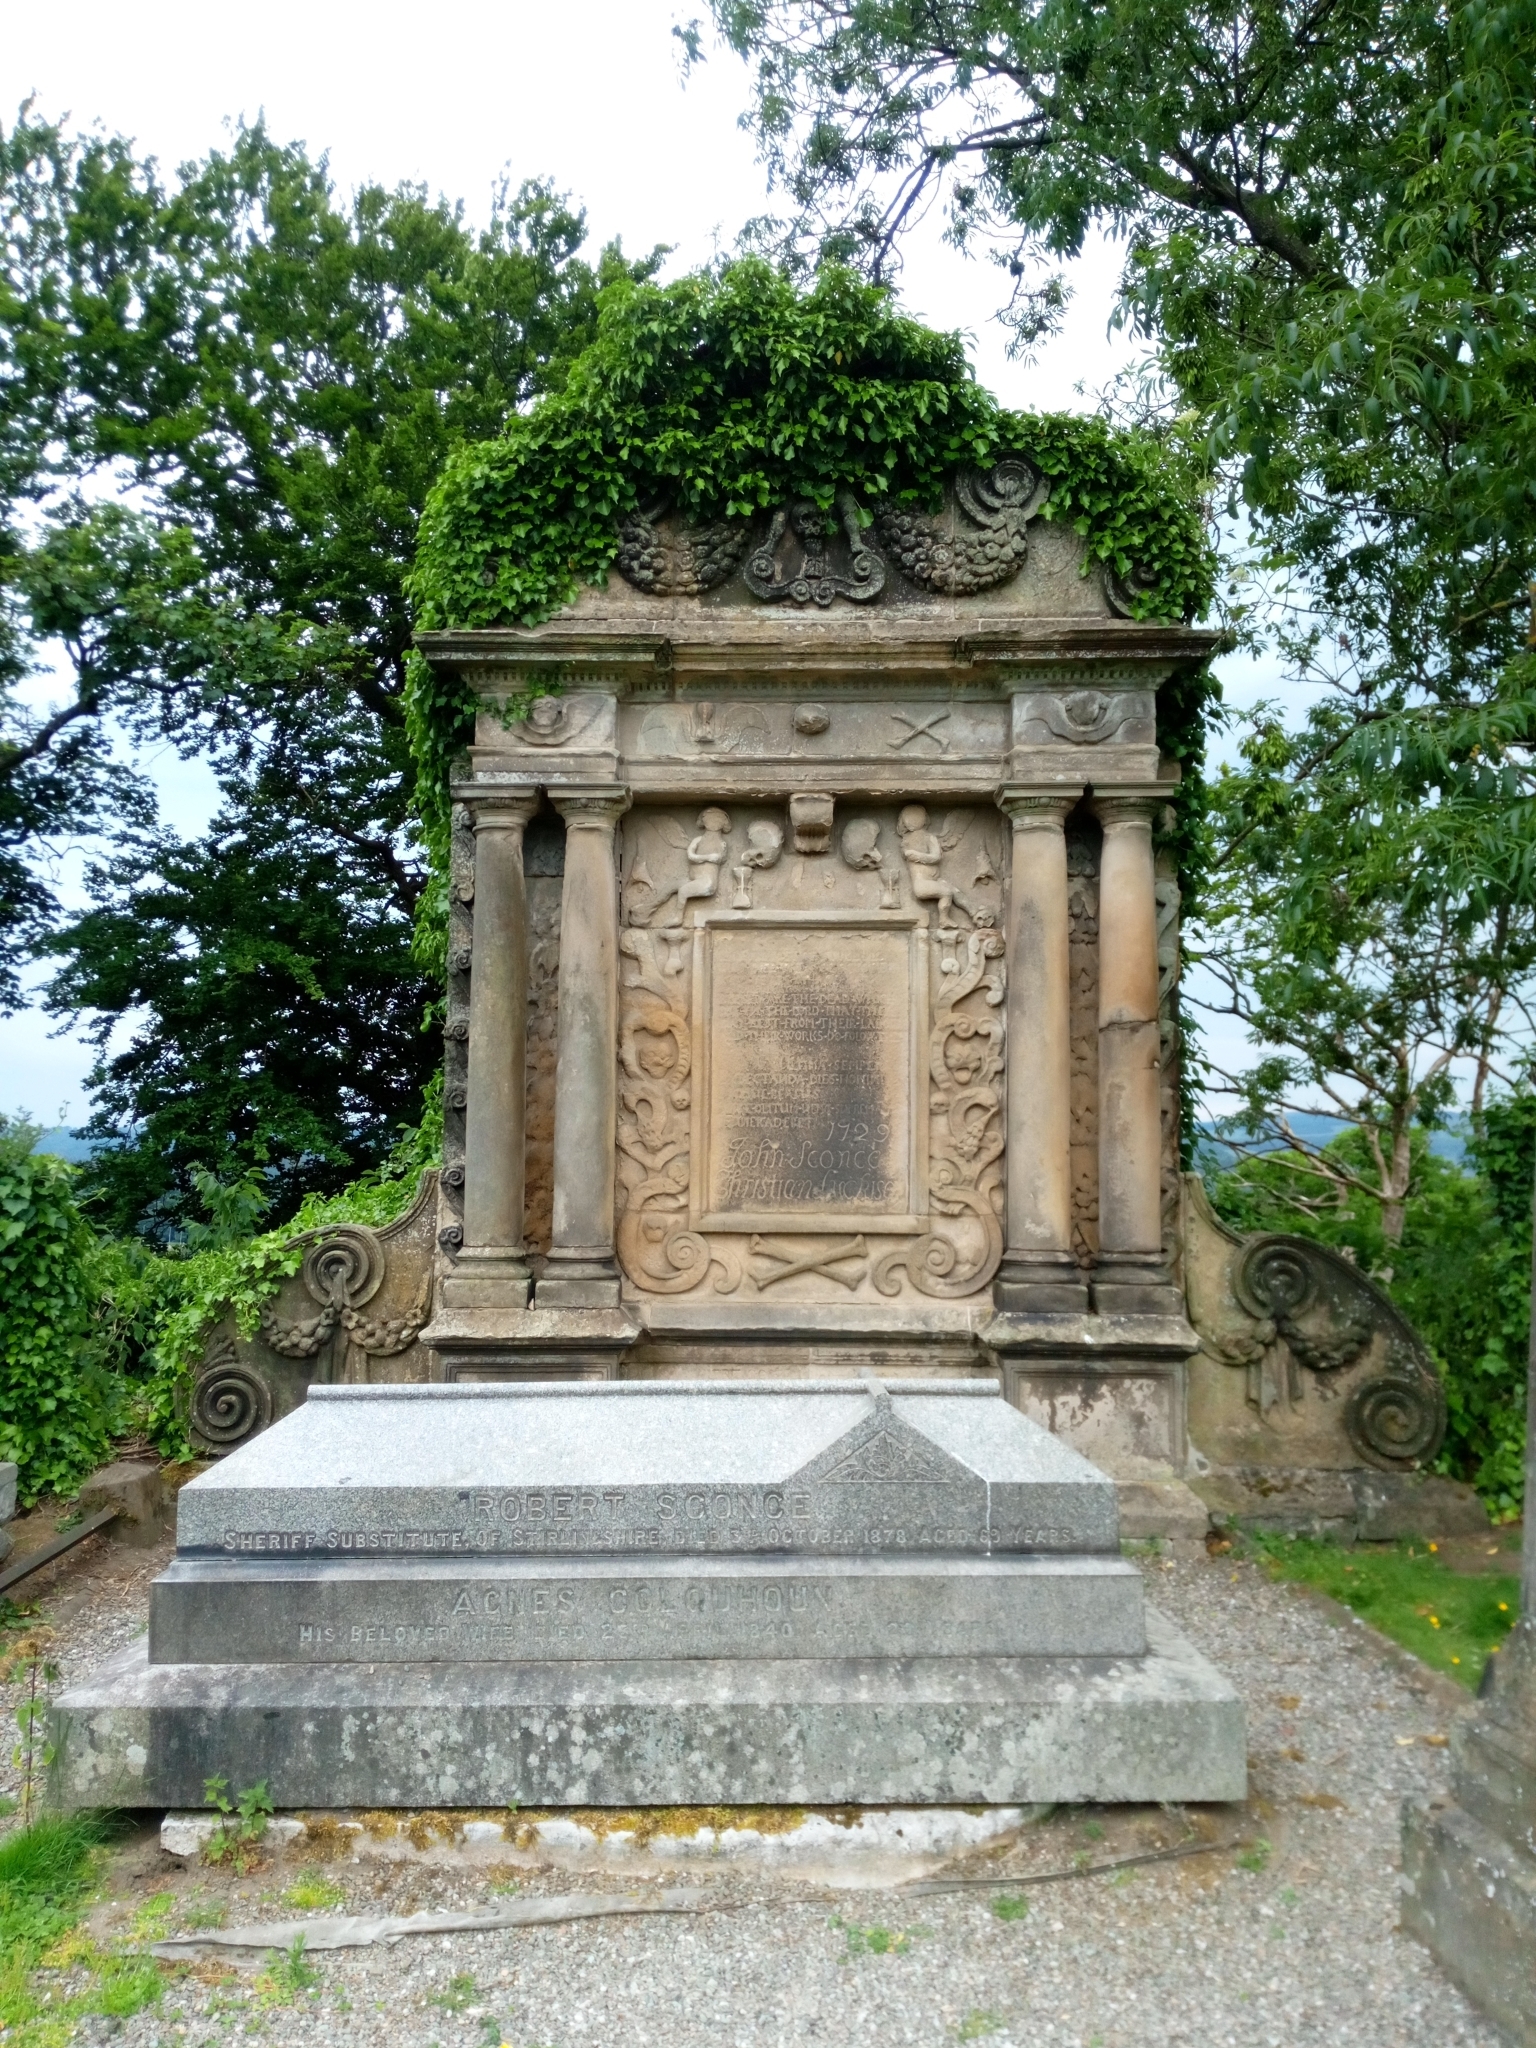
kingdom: Plantae
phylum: Tracheophyta
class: Magnoliopsida
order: Apiales
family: Araliaceae
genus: Hedera
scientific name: Hedera helix
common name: Ivy
